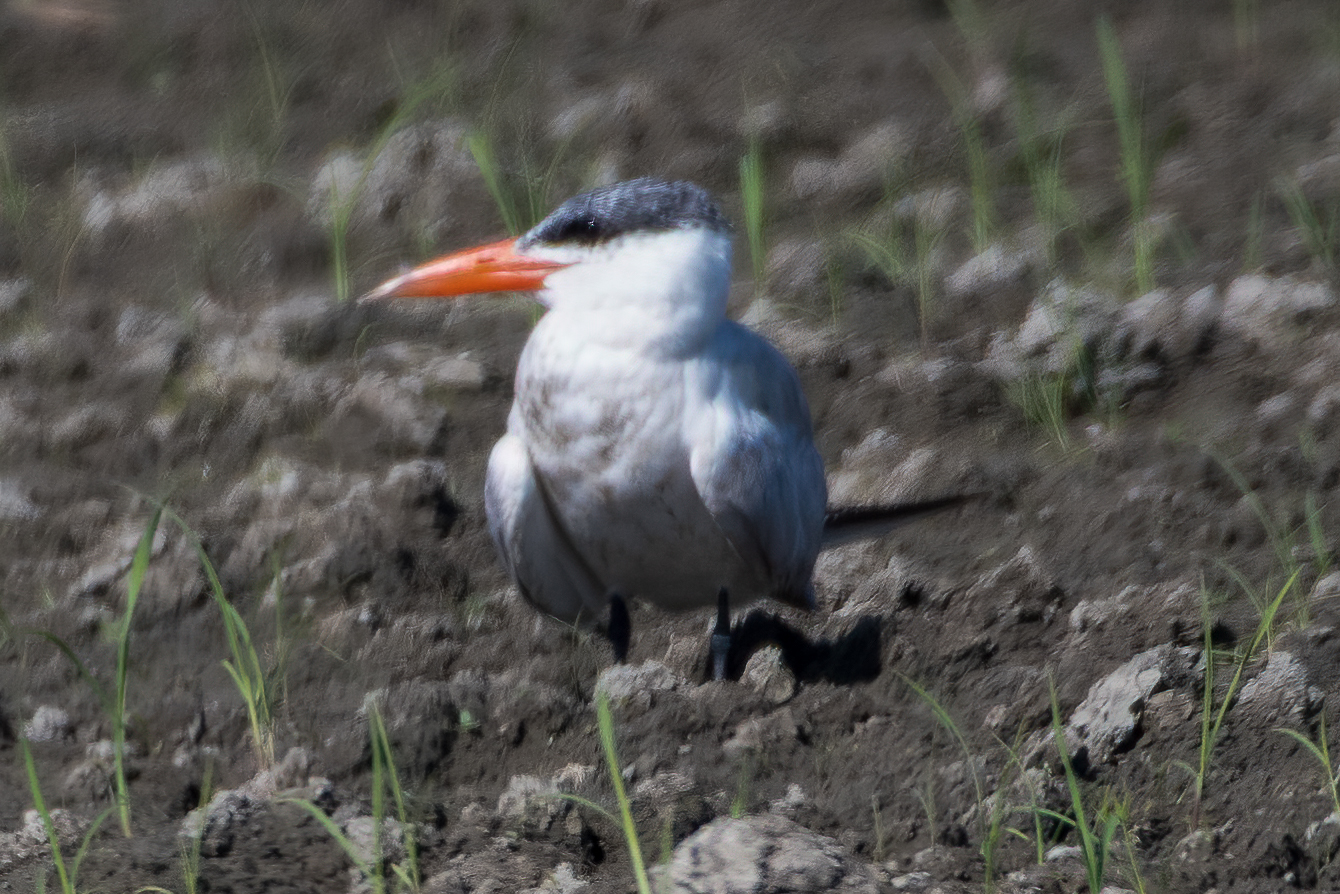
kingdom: Animalia
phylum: Chordata
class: Aves
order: Charadriiformes
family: Laridae
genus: Hydroprogne
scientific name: Hydroprogne caspia
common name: Caspian tern
